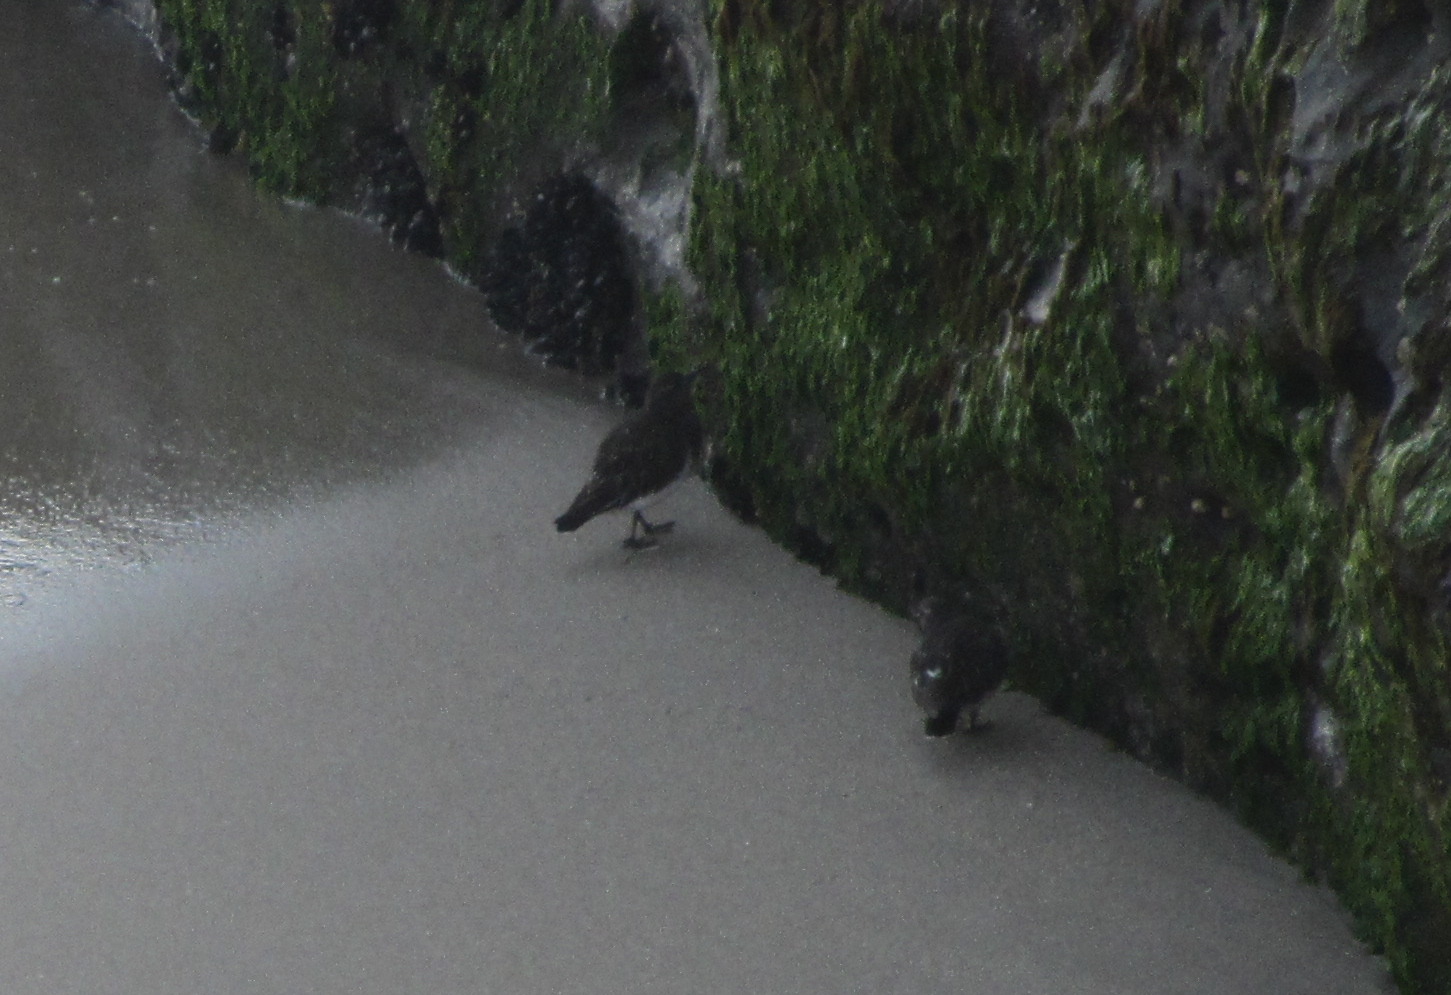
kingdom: Animalia
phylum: Chordata
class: Aves
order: Charadriiformes
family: Scolopacidae
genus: Arenaria
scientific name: Arenaria melanocephala
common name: Black turnstone
